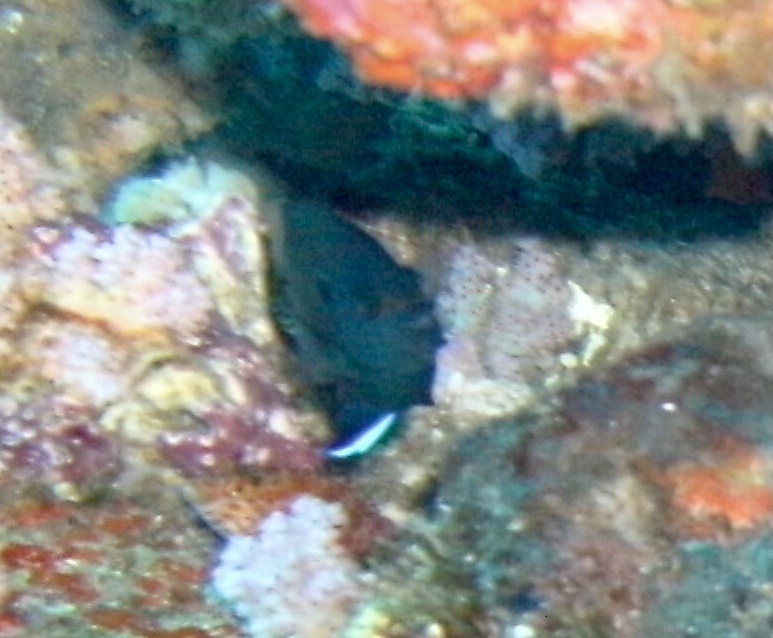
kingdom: Animalia
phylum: Chordata
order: Perciformes
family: Pomacanthidae
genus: Centropyge
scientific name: Centropyge multispinis
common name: Many-spined angelfish
